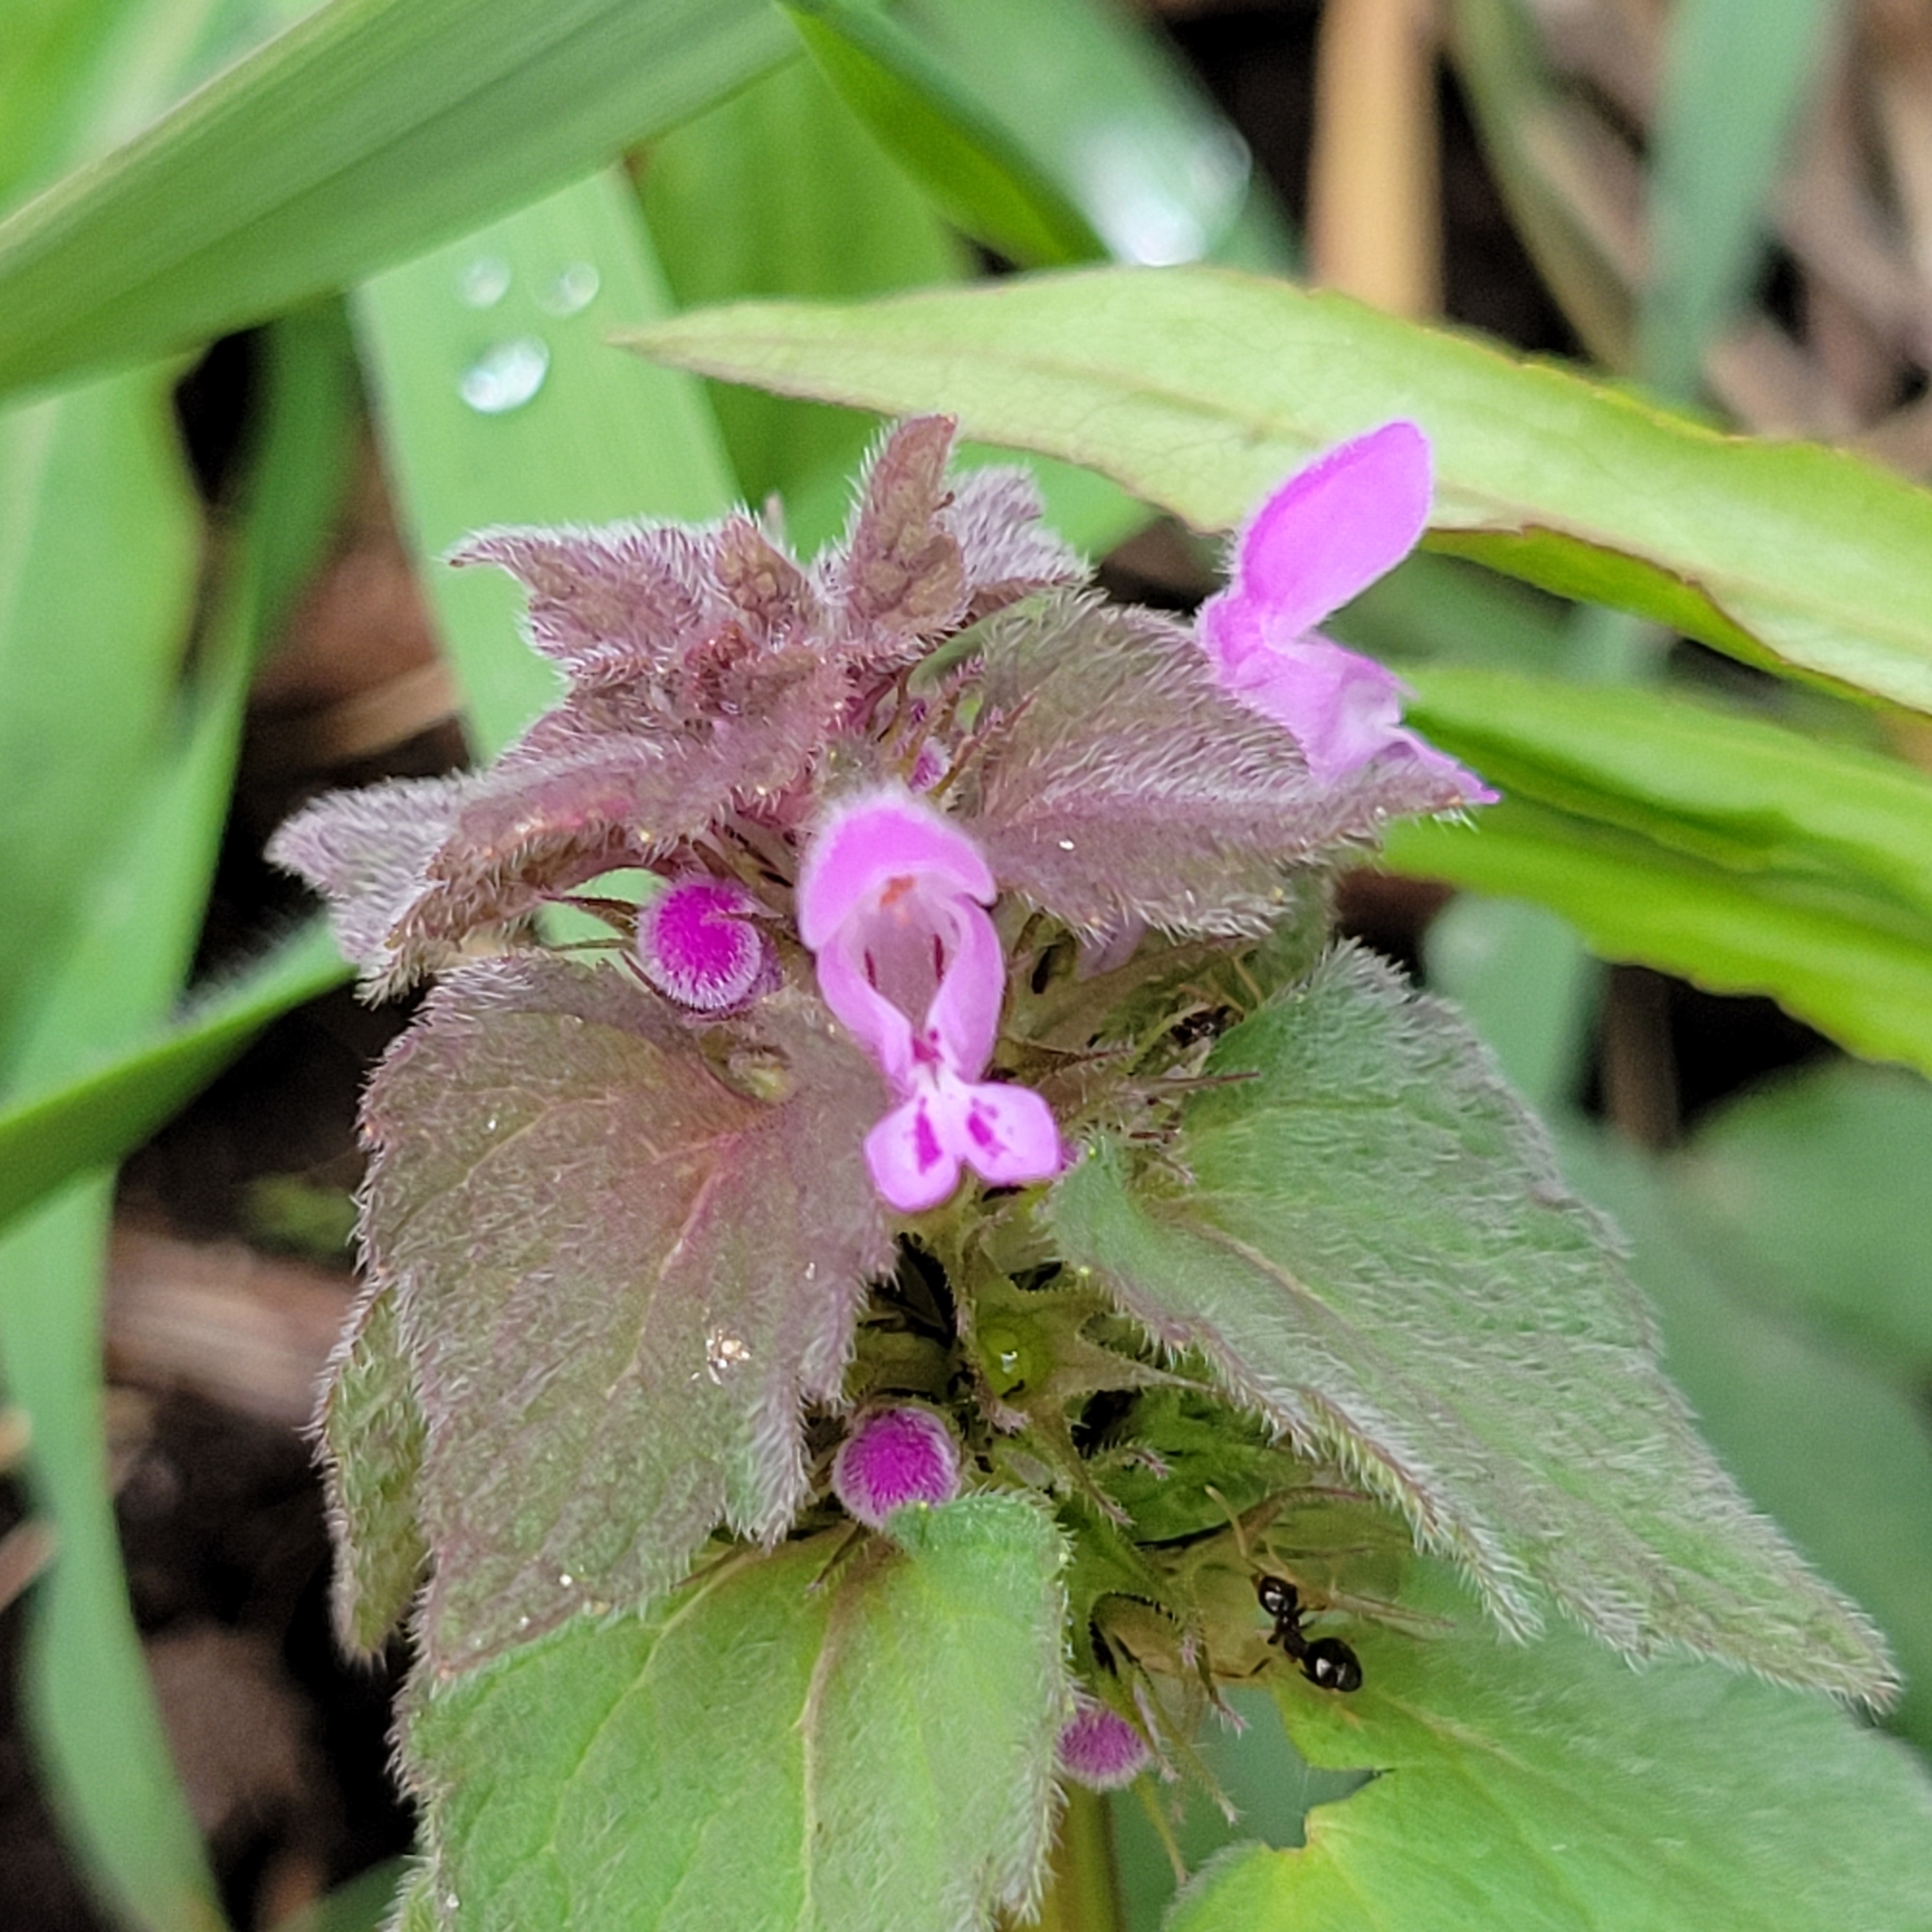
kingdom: Plantae
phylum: Tracheophyta
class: Magnoliopsida
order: Lamiales
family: Lamiaceae
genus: Lamium
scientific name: Lamium purpureum
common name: Red dead-nettle
